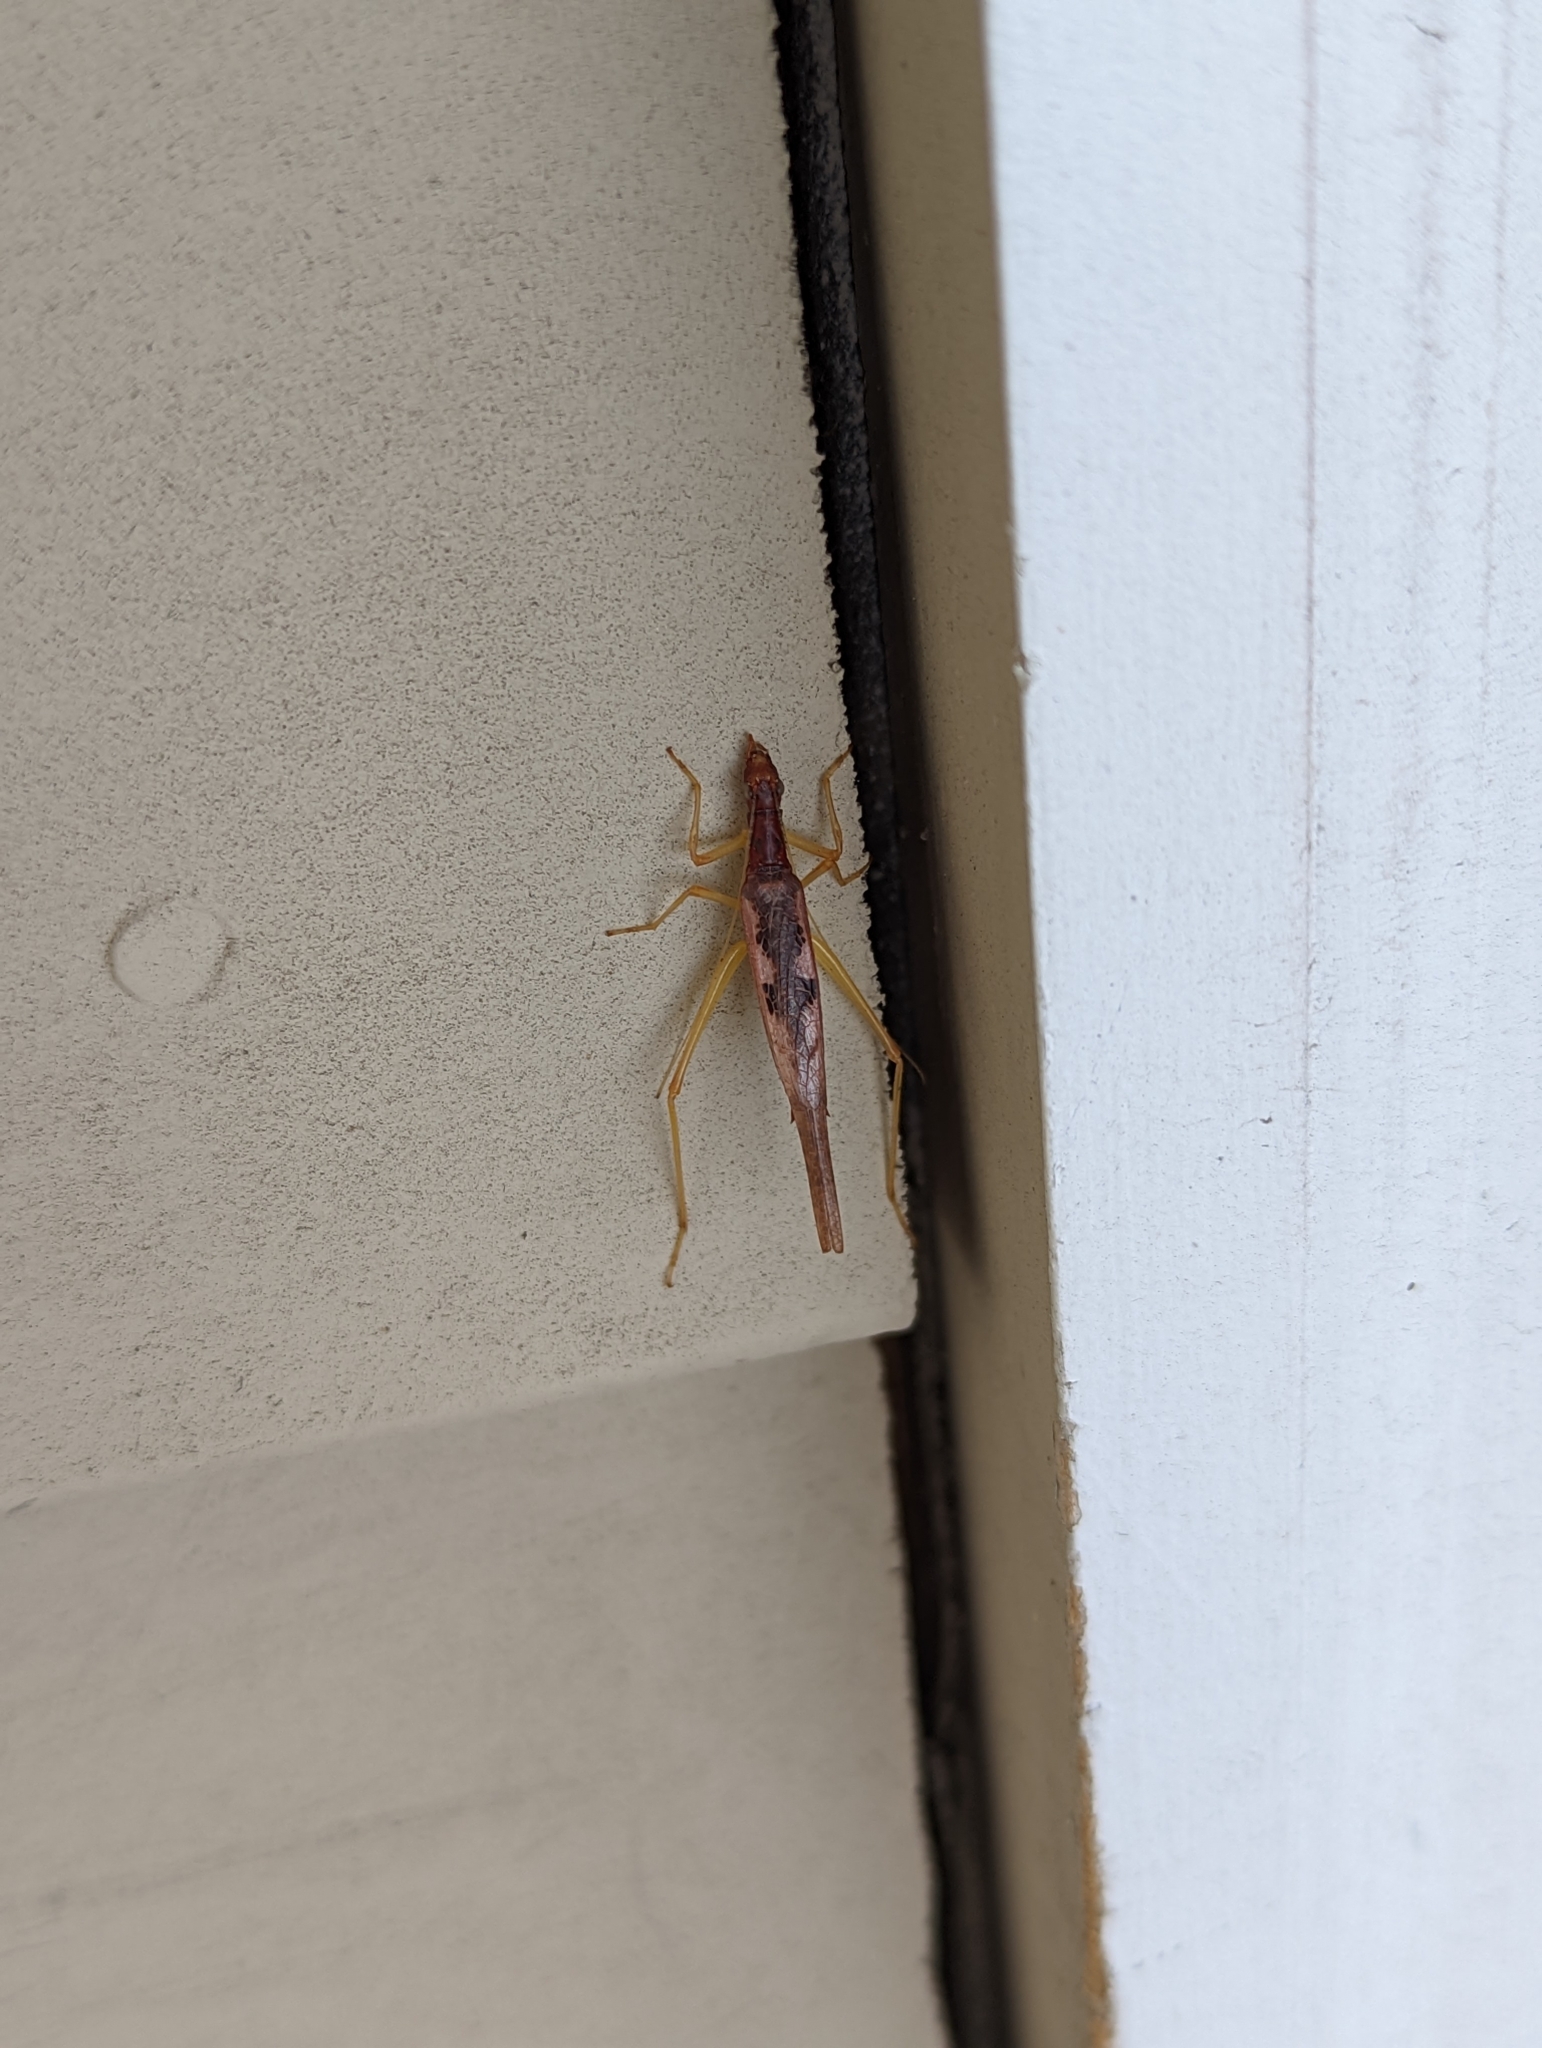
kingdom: Animalia
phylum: Arthropoda
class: Insecta
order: Orthoptera
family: Gryllidae
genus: Neoxabea
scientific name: Neoxabea bipunctata
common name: Two-spotted tree cricket
